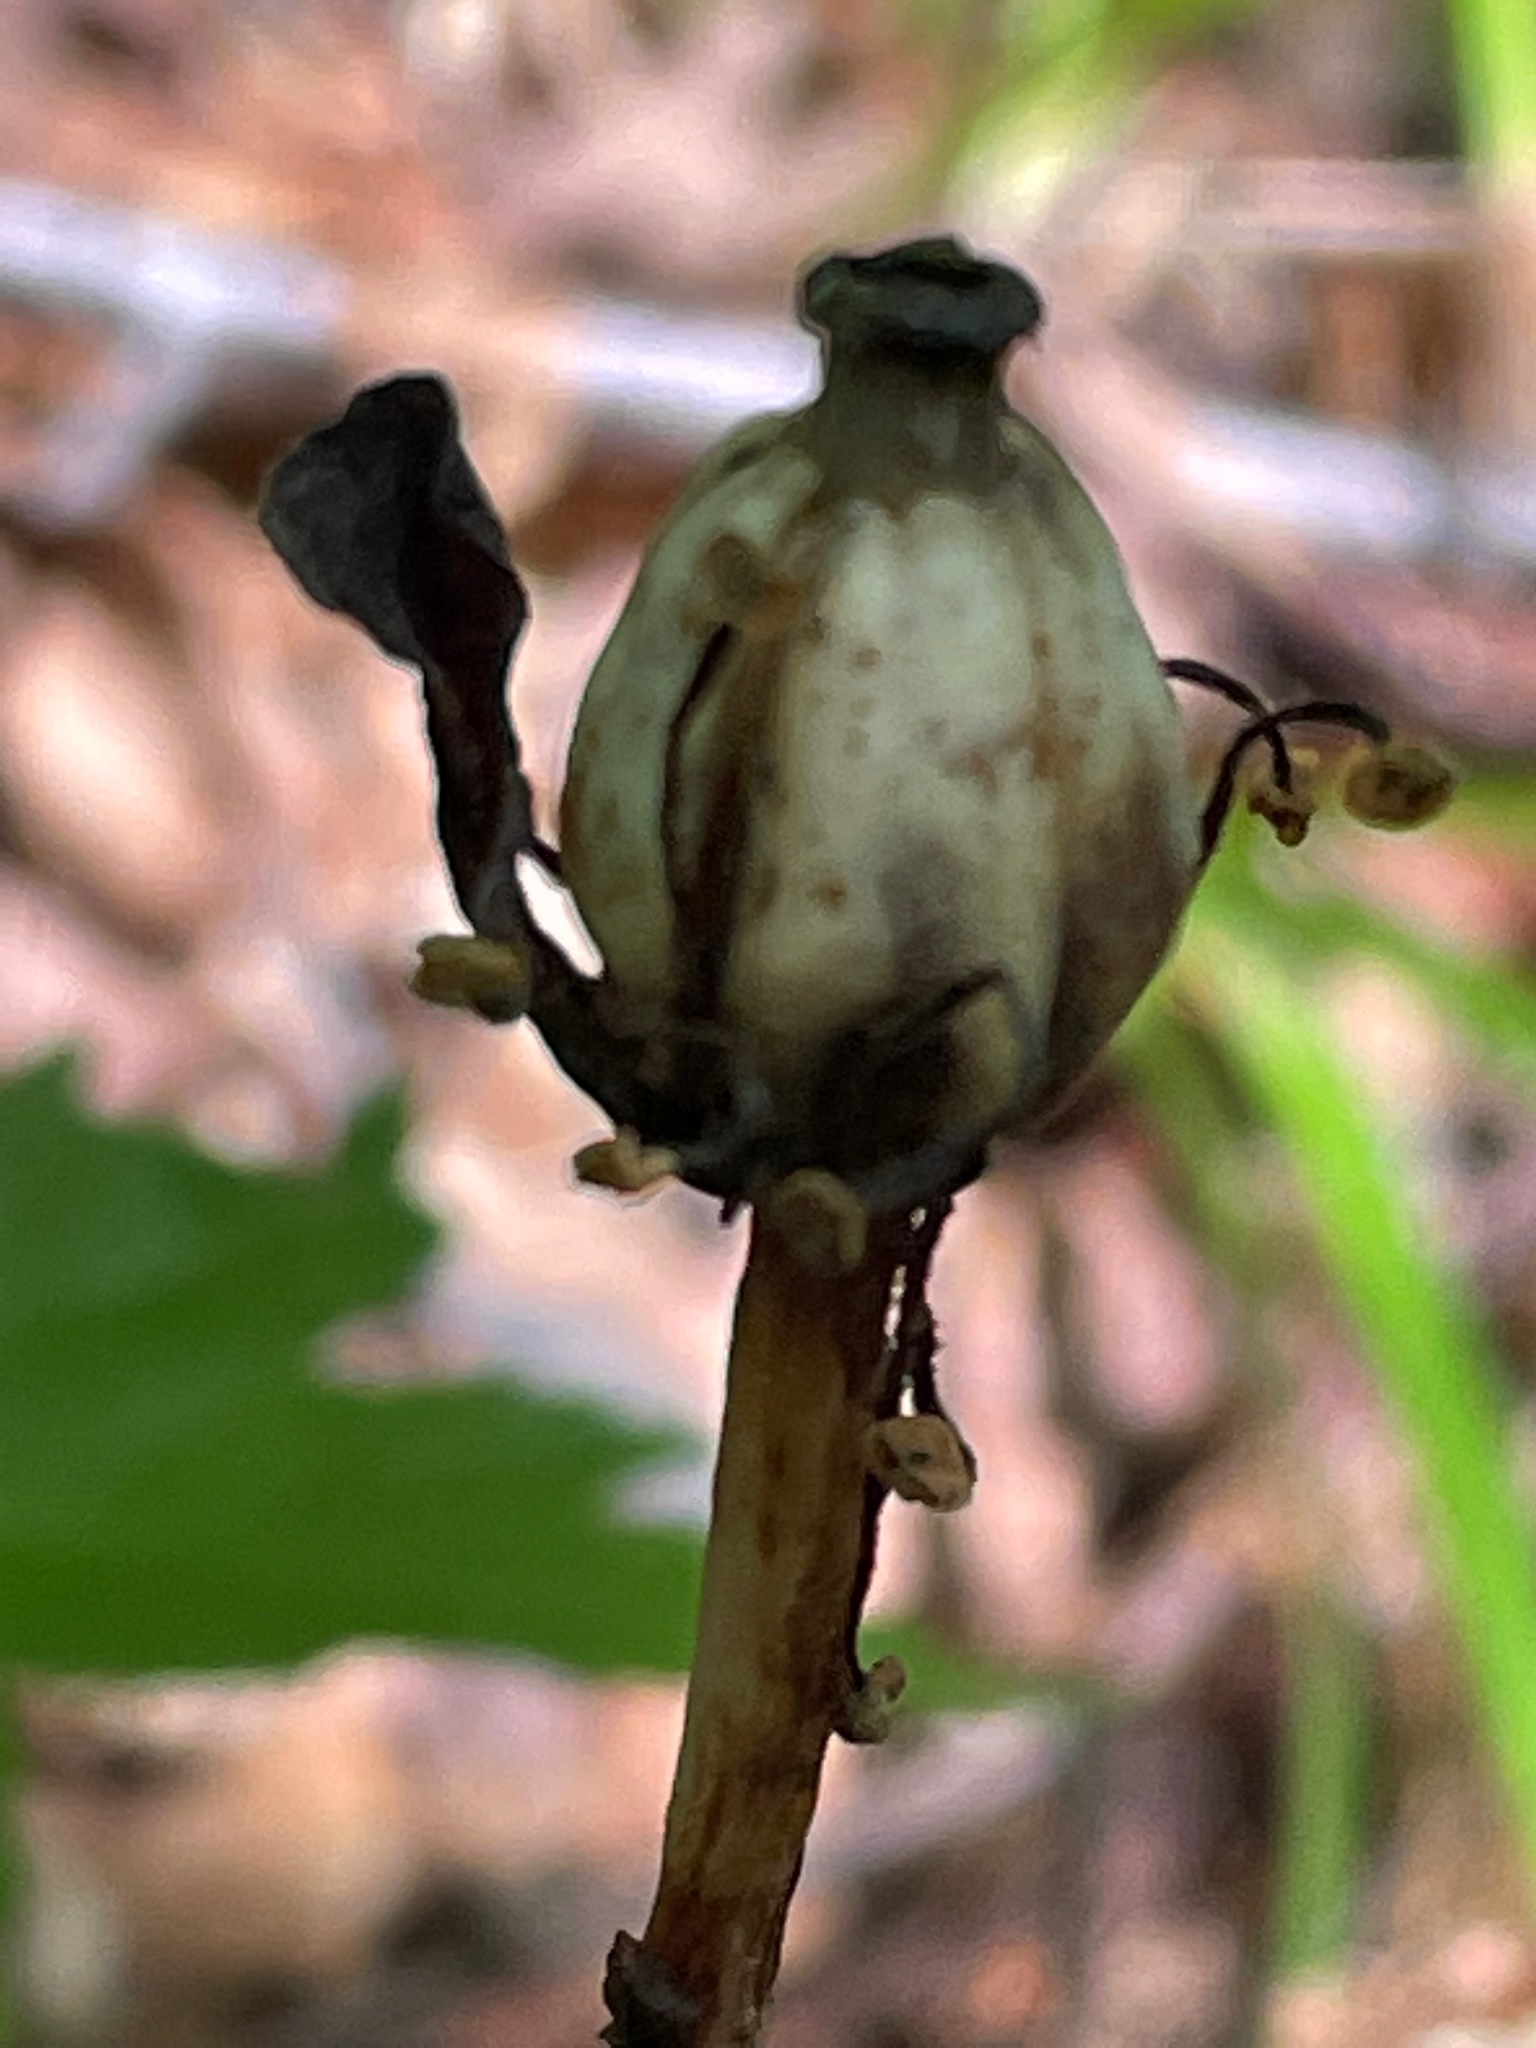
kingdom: Plantae
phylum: Tracheophyta
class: Magnoliopsida
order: Ericales
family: Ericaceae
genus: Monotropa
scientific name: Monotropa uniflora
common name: Convulsion root
